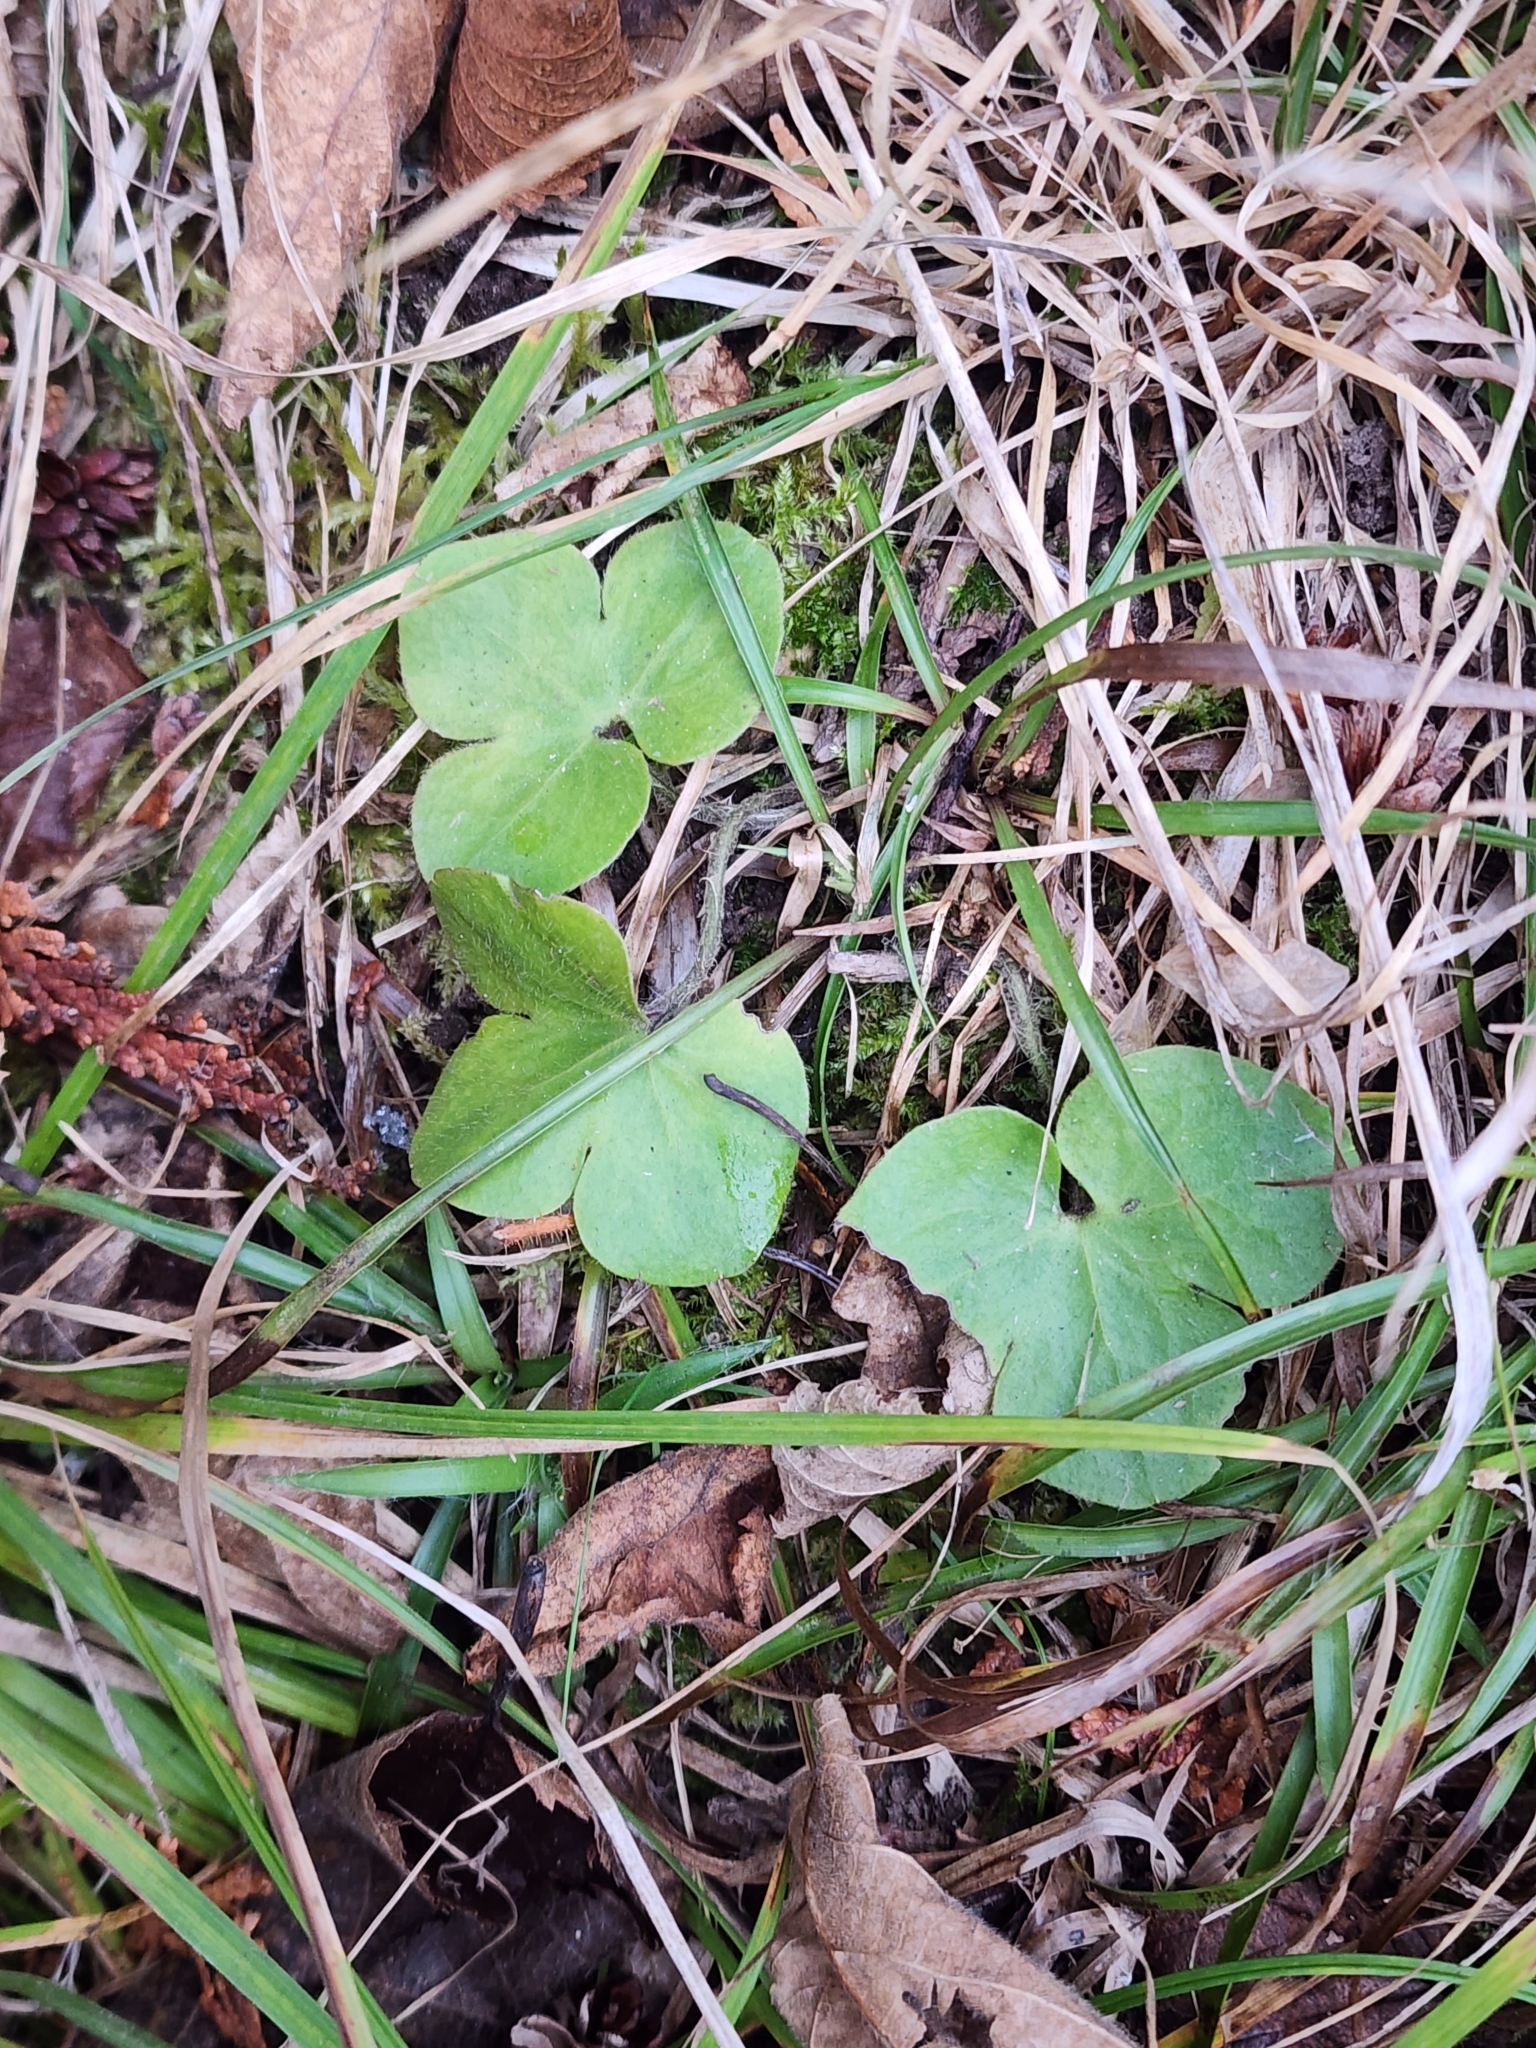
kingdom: Plantae
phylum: Tracheophyta
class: Magnoliopsida
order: Ranunculales
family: Ranunculaceae
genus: Hepatica
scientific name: Hepatica americana
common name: American hepatica
